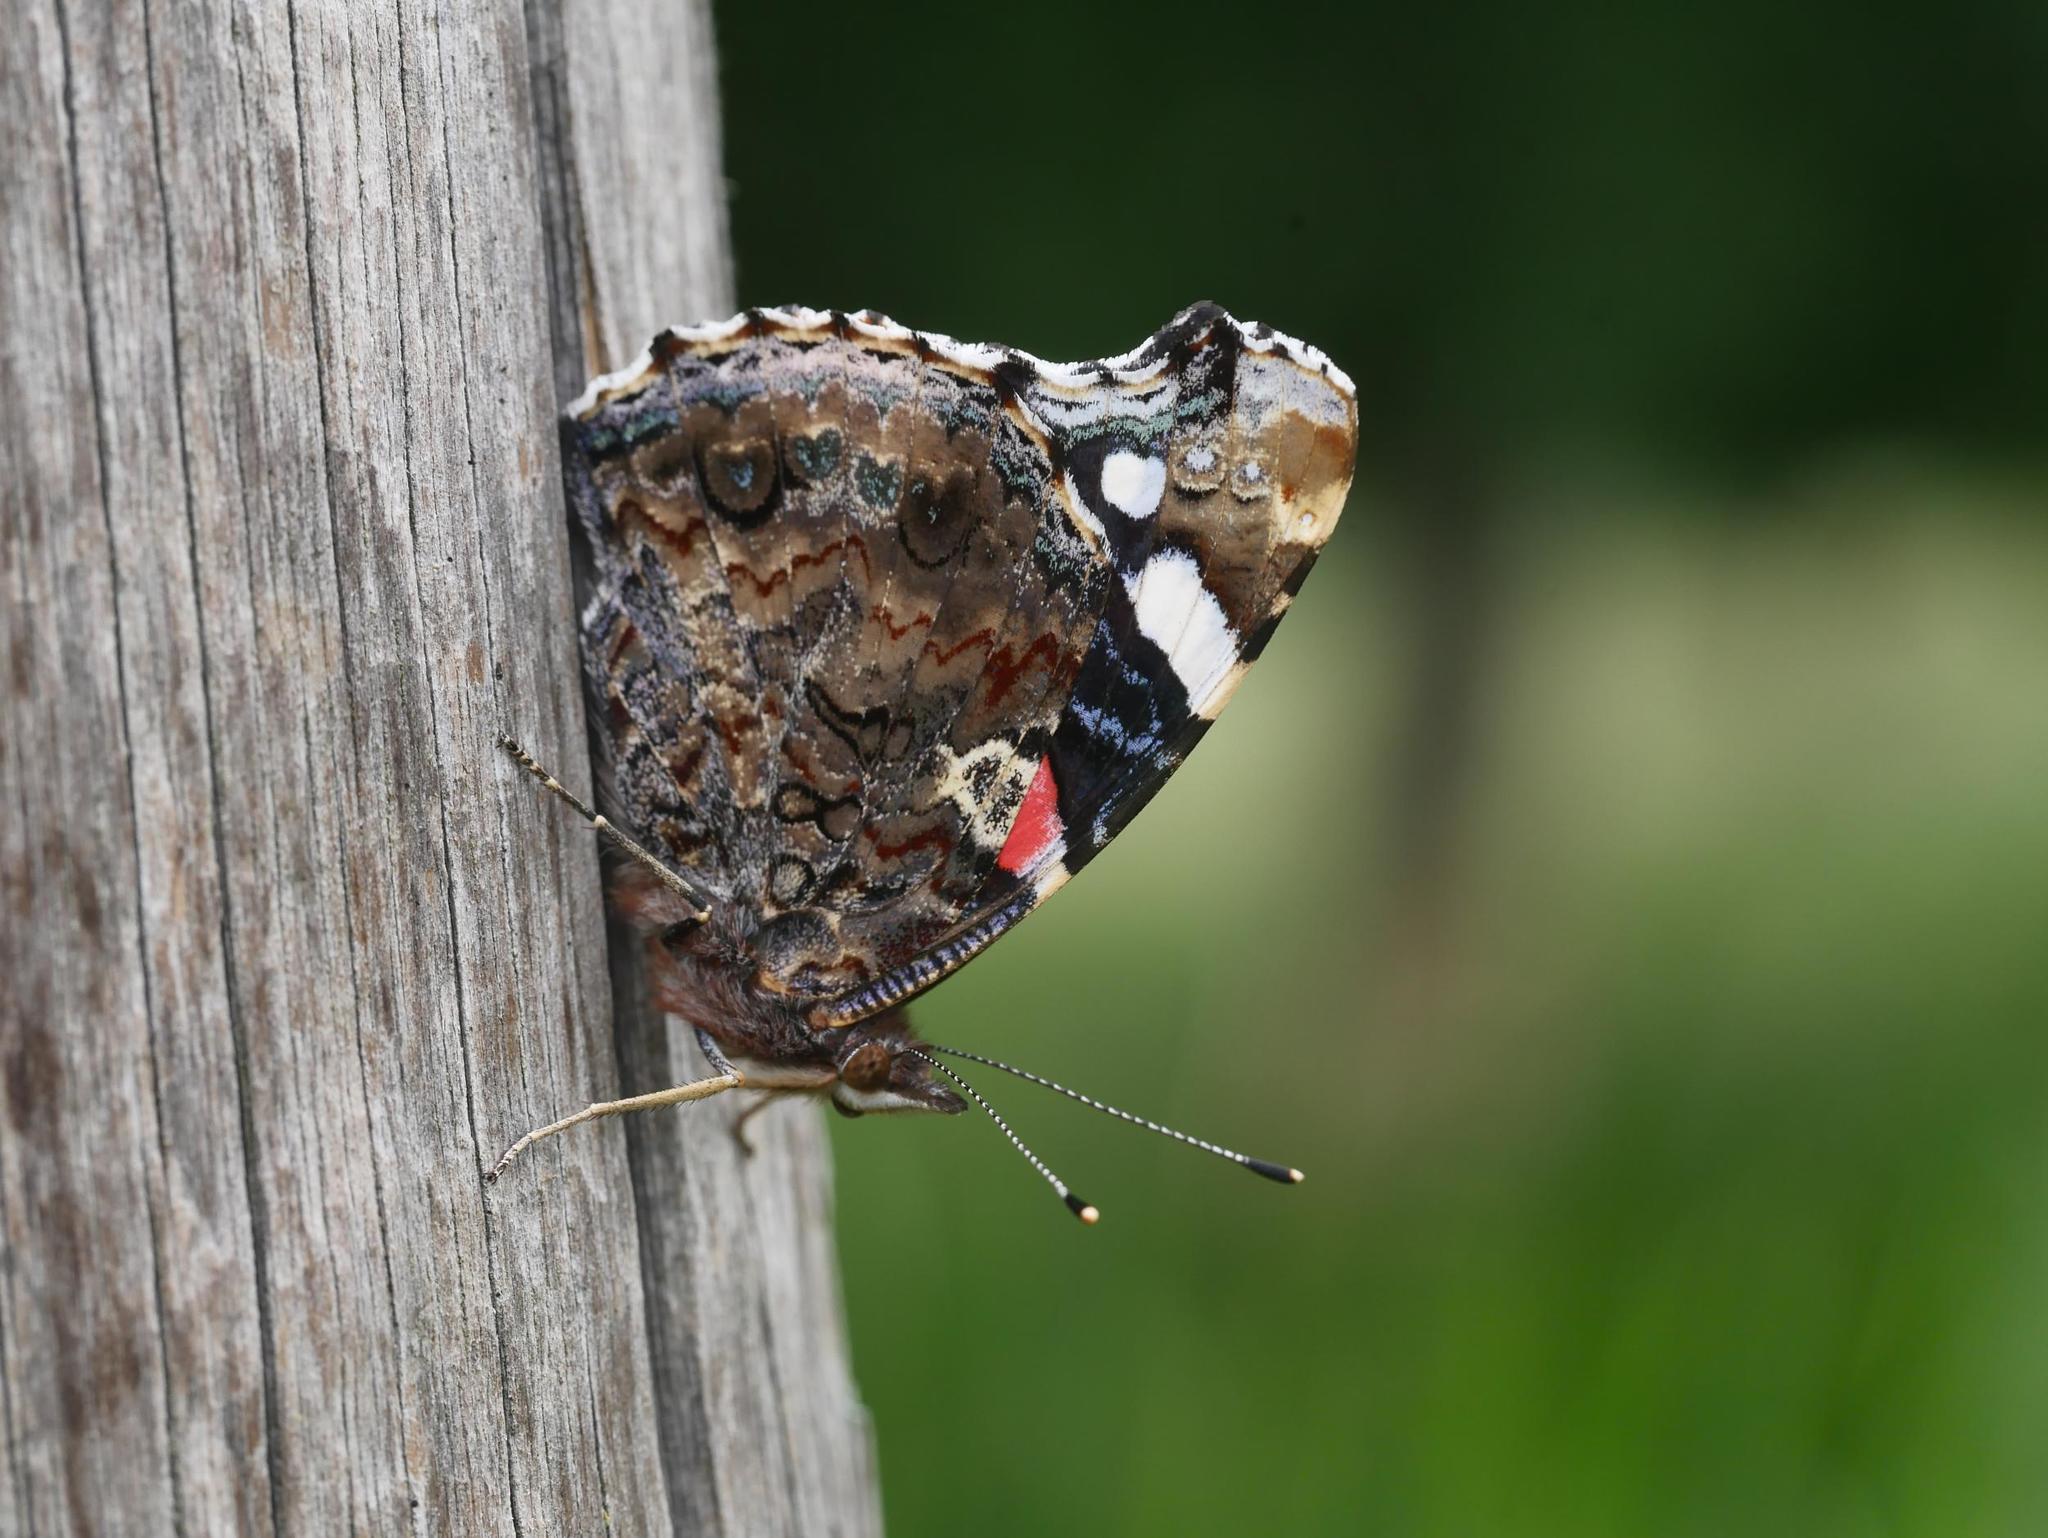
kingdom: Animalia
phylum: Arthropoda
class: Insecta
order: Lepidoptera
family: Nymphalidae
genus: Vanessa
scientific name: Vanessa atalanta
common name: Red admiral
